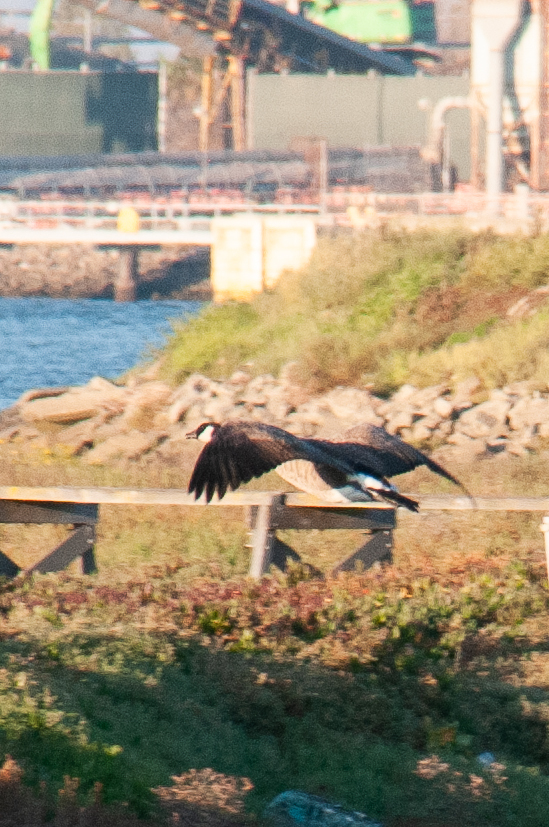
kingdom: Animalia
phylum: Chordata
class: Aves
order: Anseriformes
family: Anatidae
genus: Branta
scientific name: Branta canadensis
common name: Canada goose
